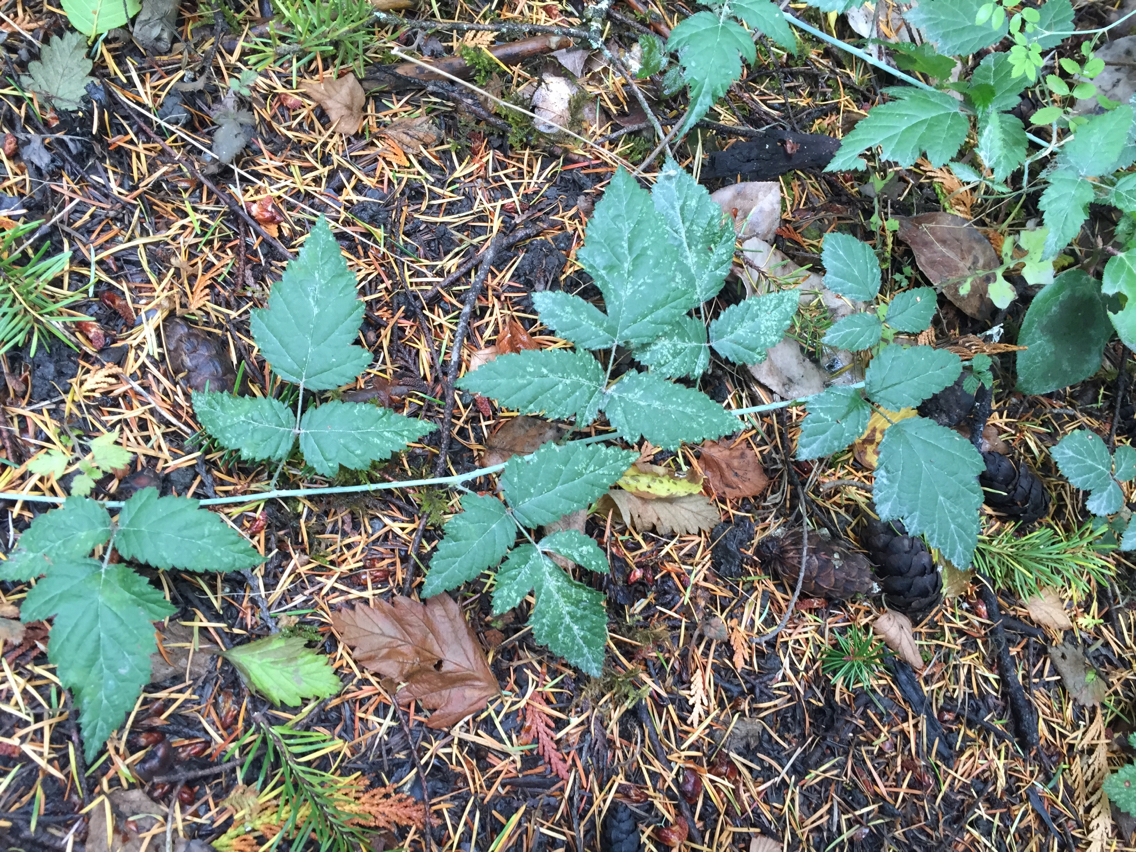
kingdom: Plantae
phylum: Tracheophyta
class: Magnoliopsida
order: Rosales
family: Rosaceae
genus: Rubus
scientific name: Rubus ursinus
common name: Pacific blackberry
